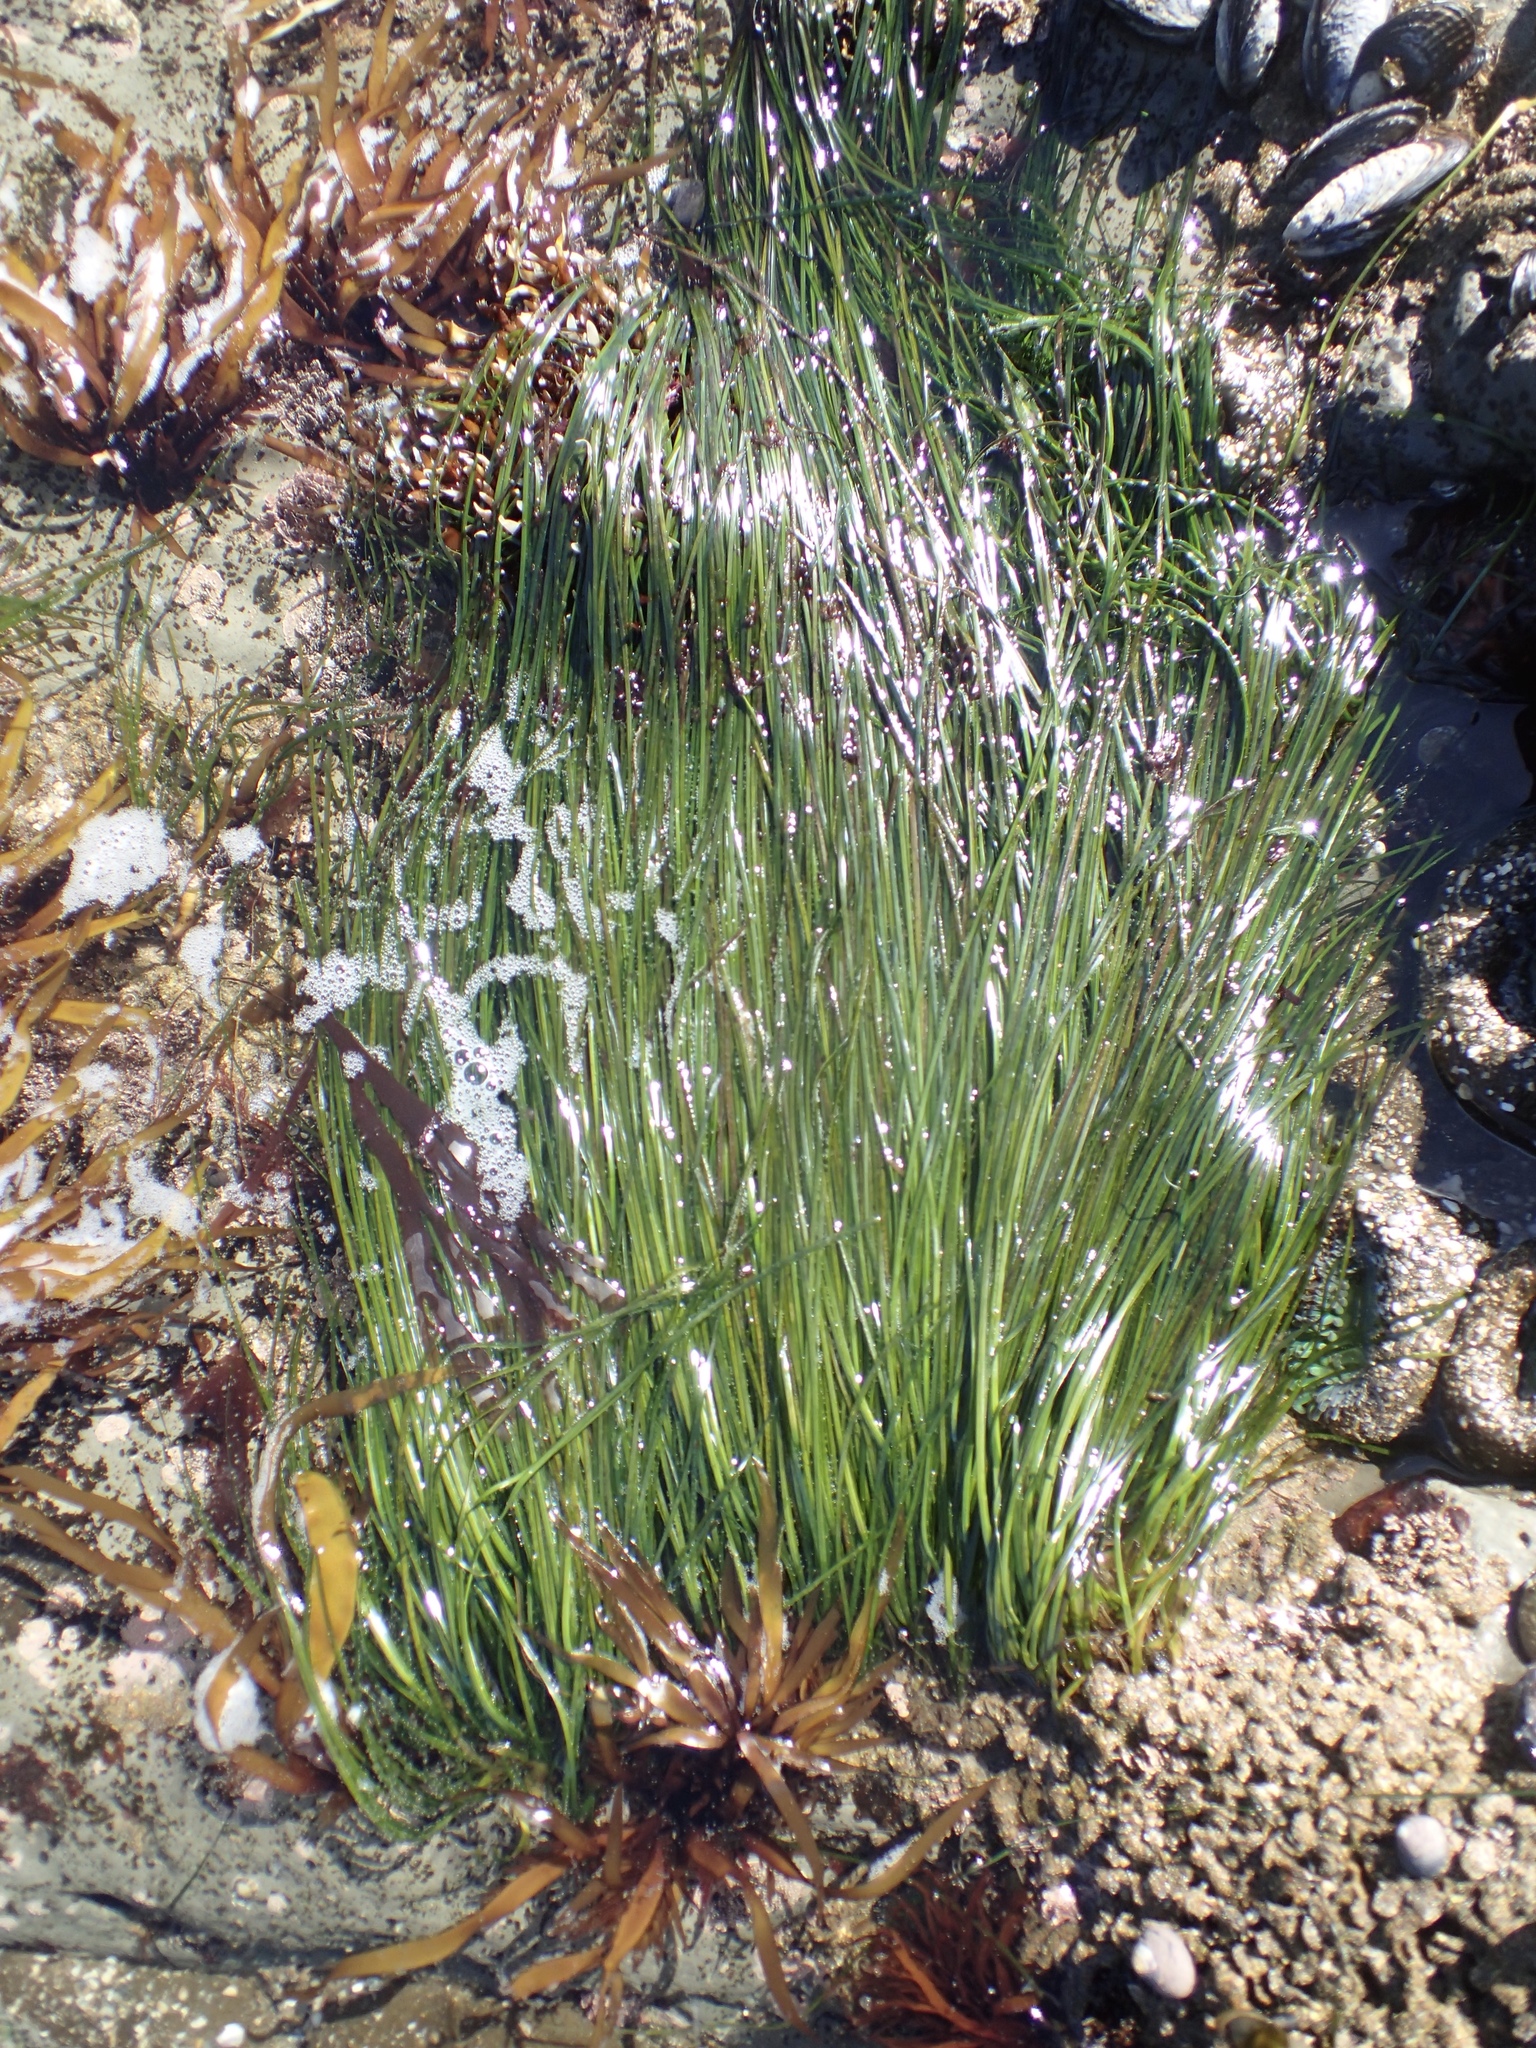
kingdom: Plantae
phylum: Tracheophyta
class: Liliopsida
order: Alismatales
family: Zosteraceae
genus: Phyllospadix
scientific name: Phyllospadix torreyi
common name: Surfgrass
